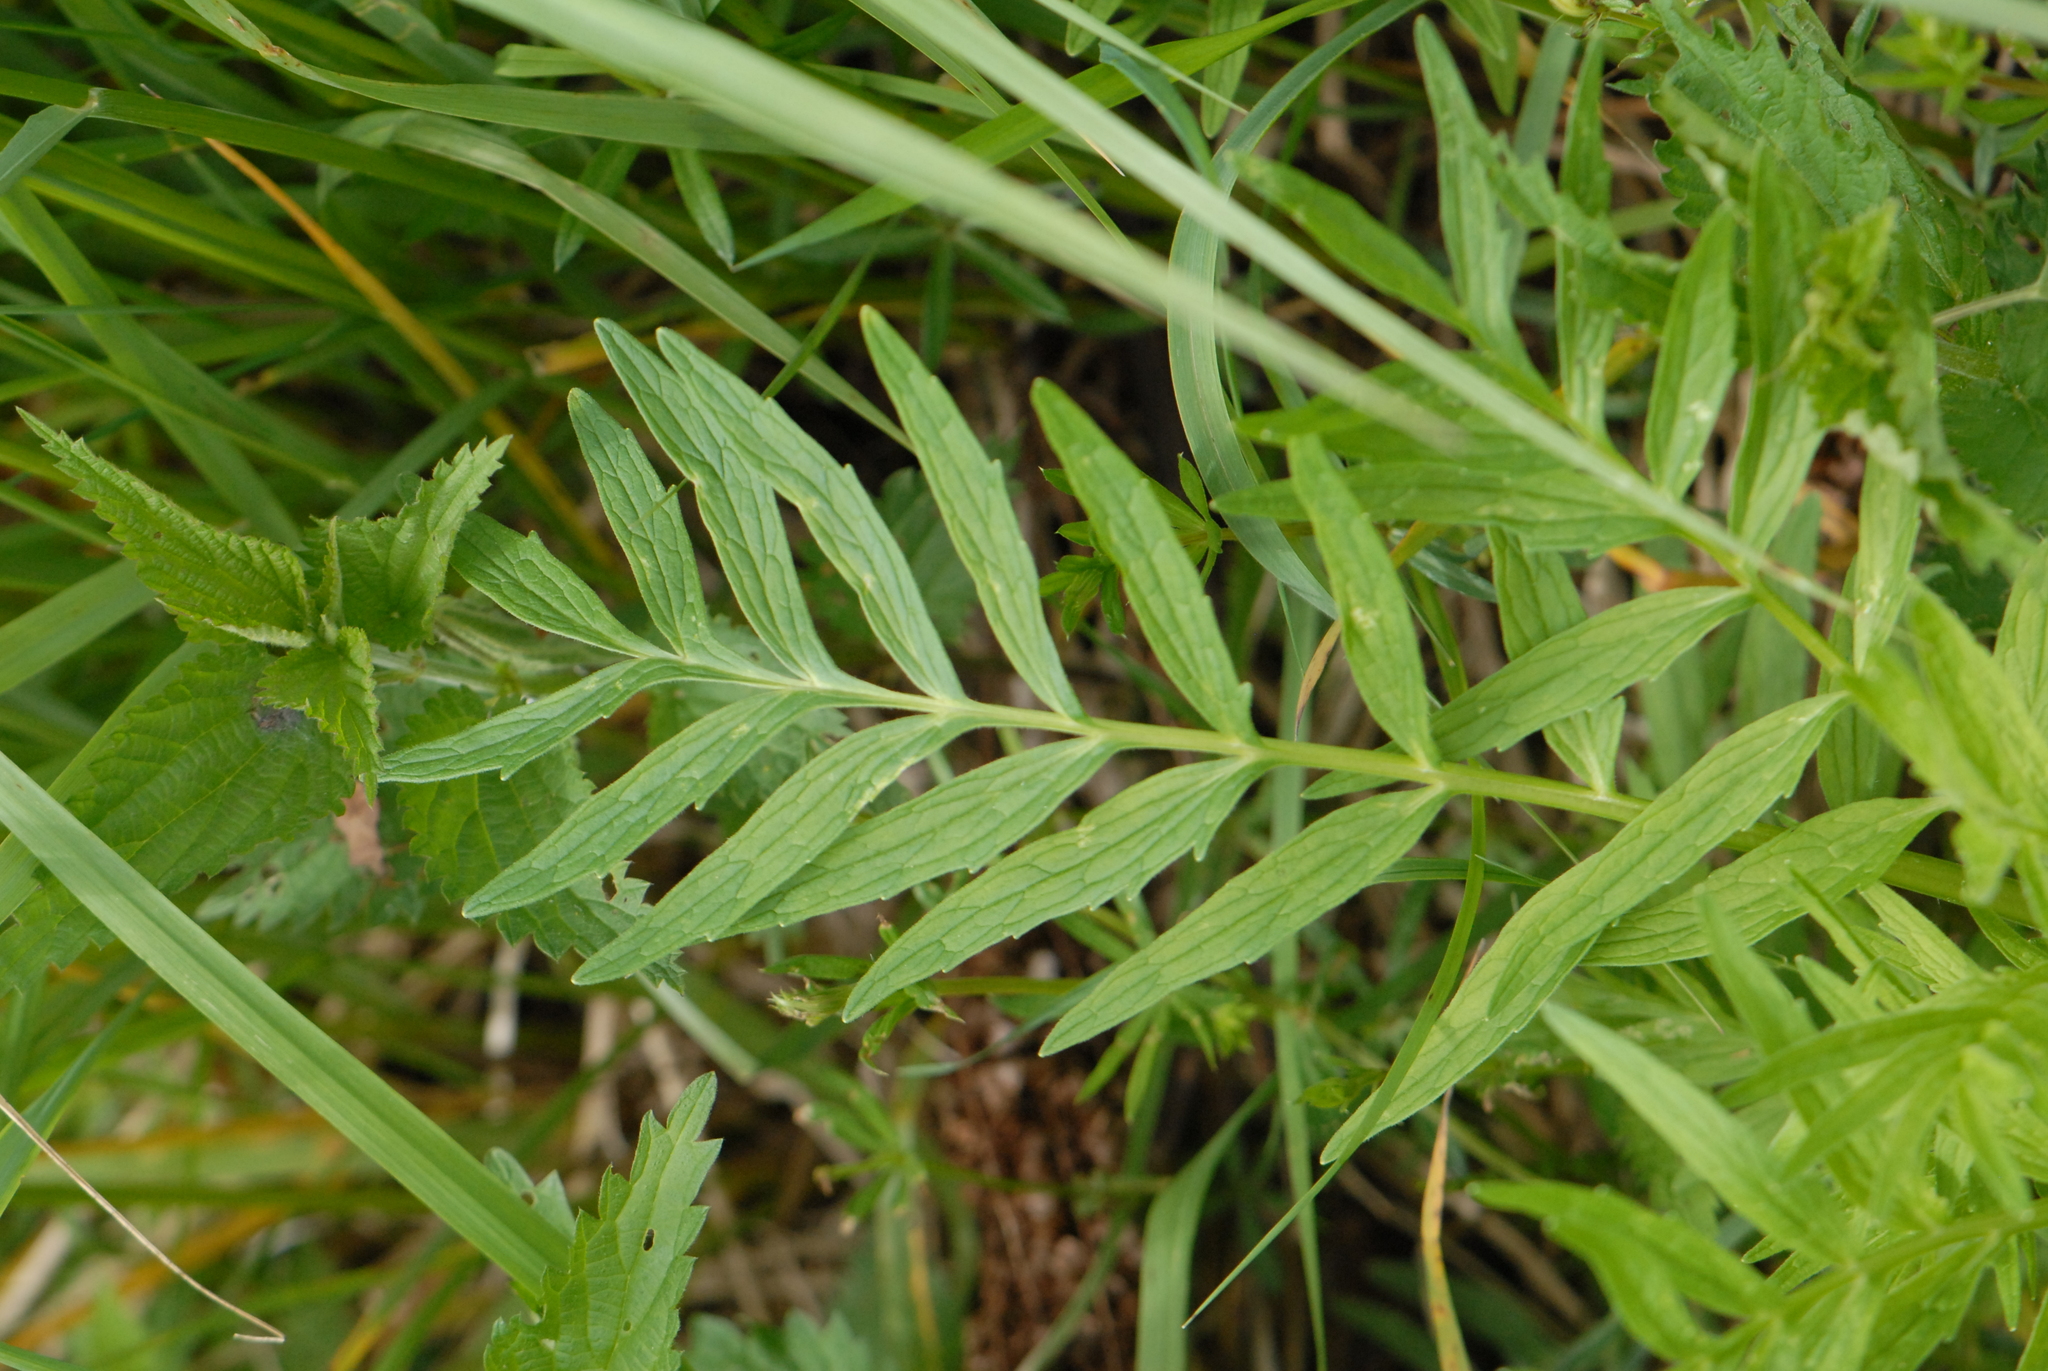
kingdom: Plantae
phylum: Tracheophyta
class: Magnoliopsida
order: Dipsacales
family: Caprifoliaceae
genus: Valeriana
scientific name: Valeriana officinalis
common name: Common valerian
